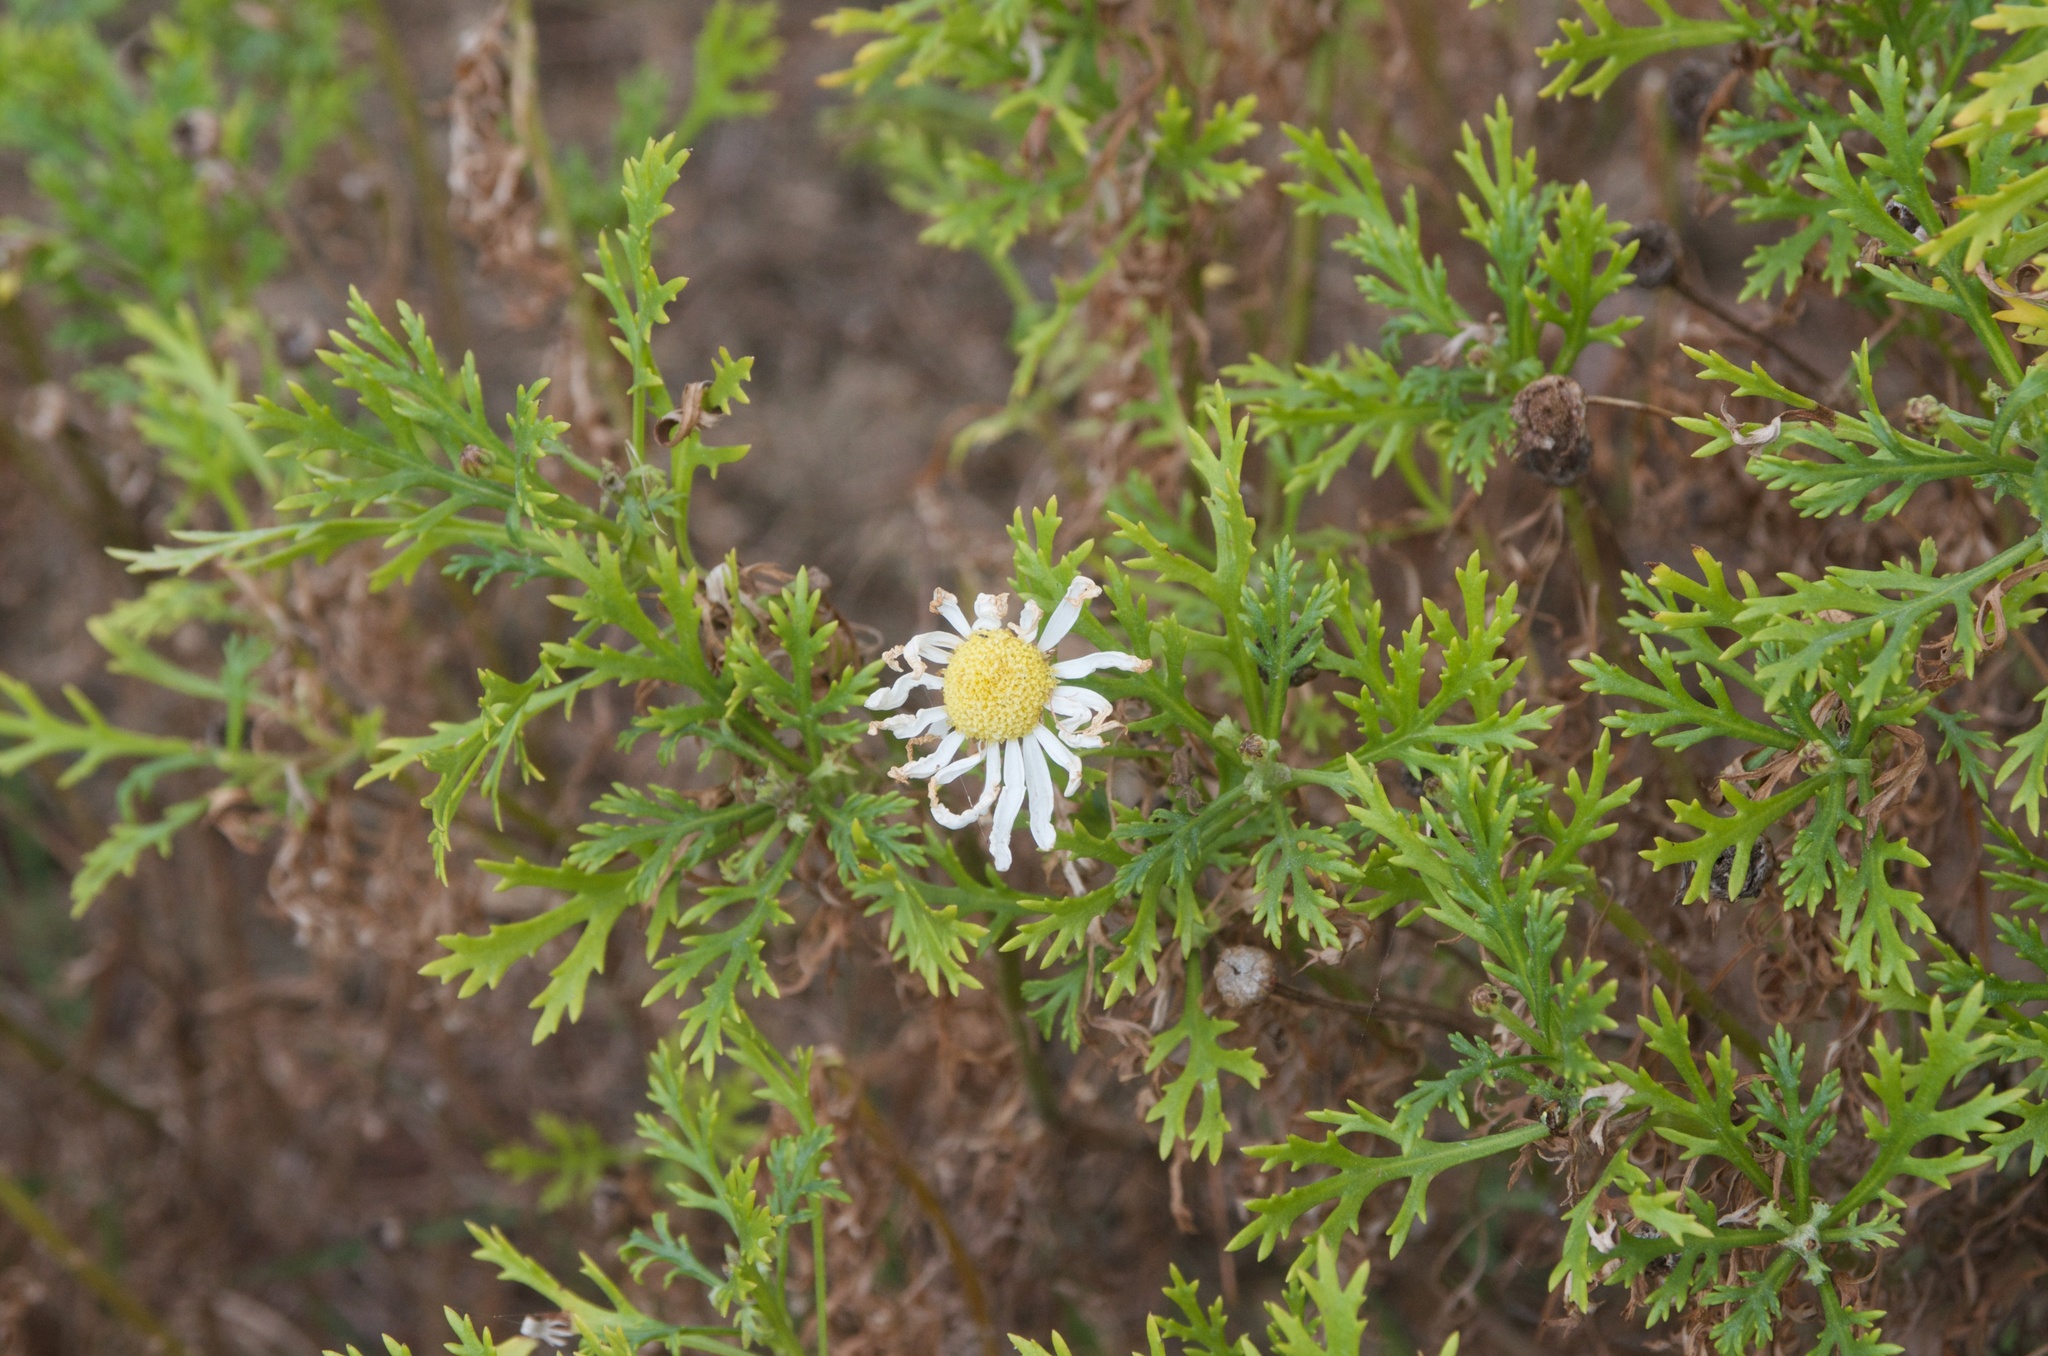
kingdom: Plantae
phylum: Tracheophyta
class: Magnoliopsida
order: Asterales
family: Asteraceae
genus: Argyranthemum
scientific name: Argyranthemum frutescens
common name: Paris daisy
